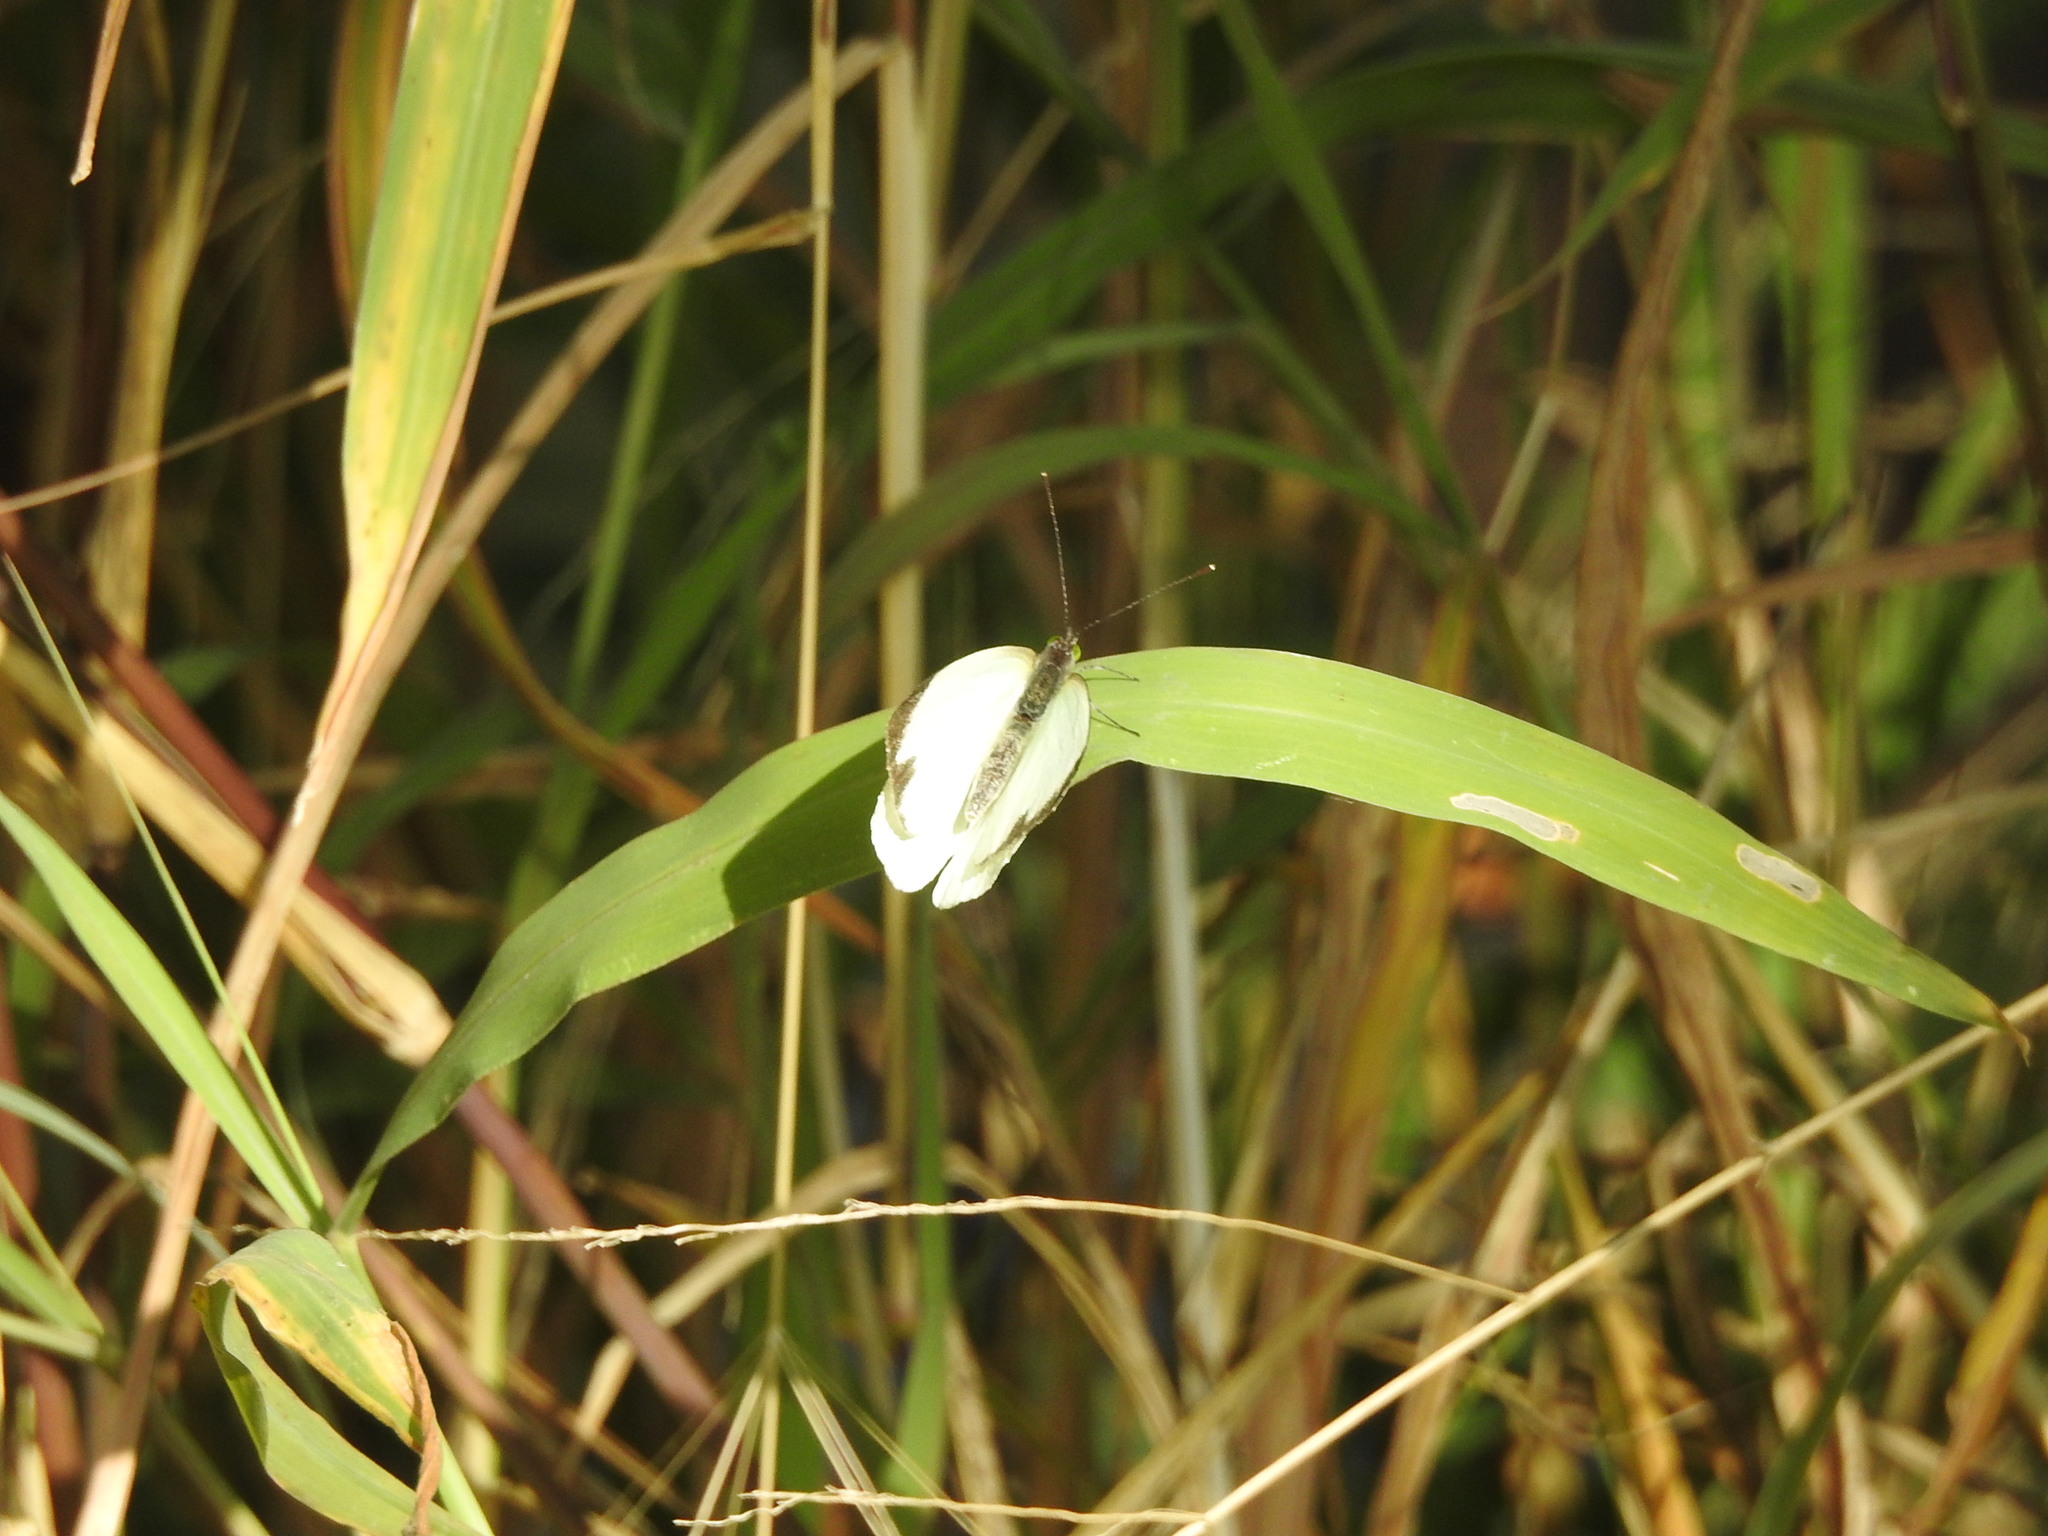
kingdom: Animalia
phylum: Arthropoda
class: Insecta
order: Lepidoptera
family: Pieridae
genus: Leptophobia
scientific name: Leptophobia aripa
